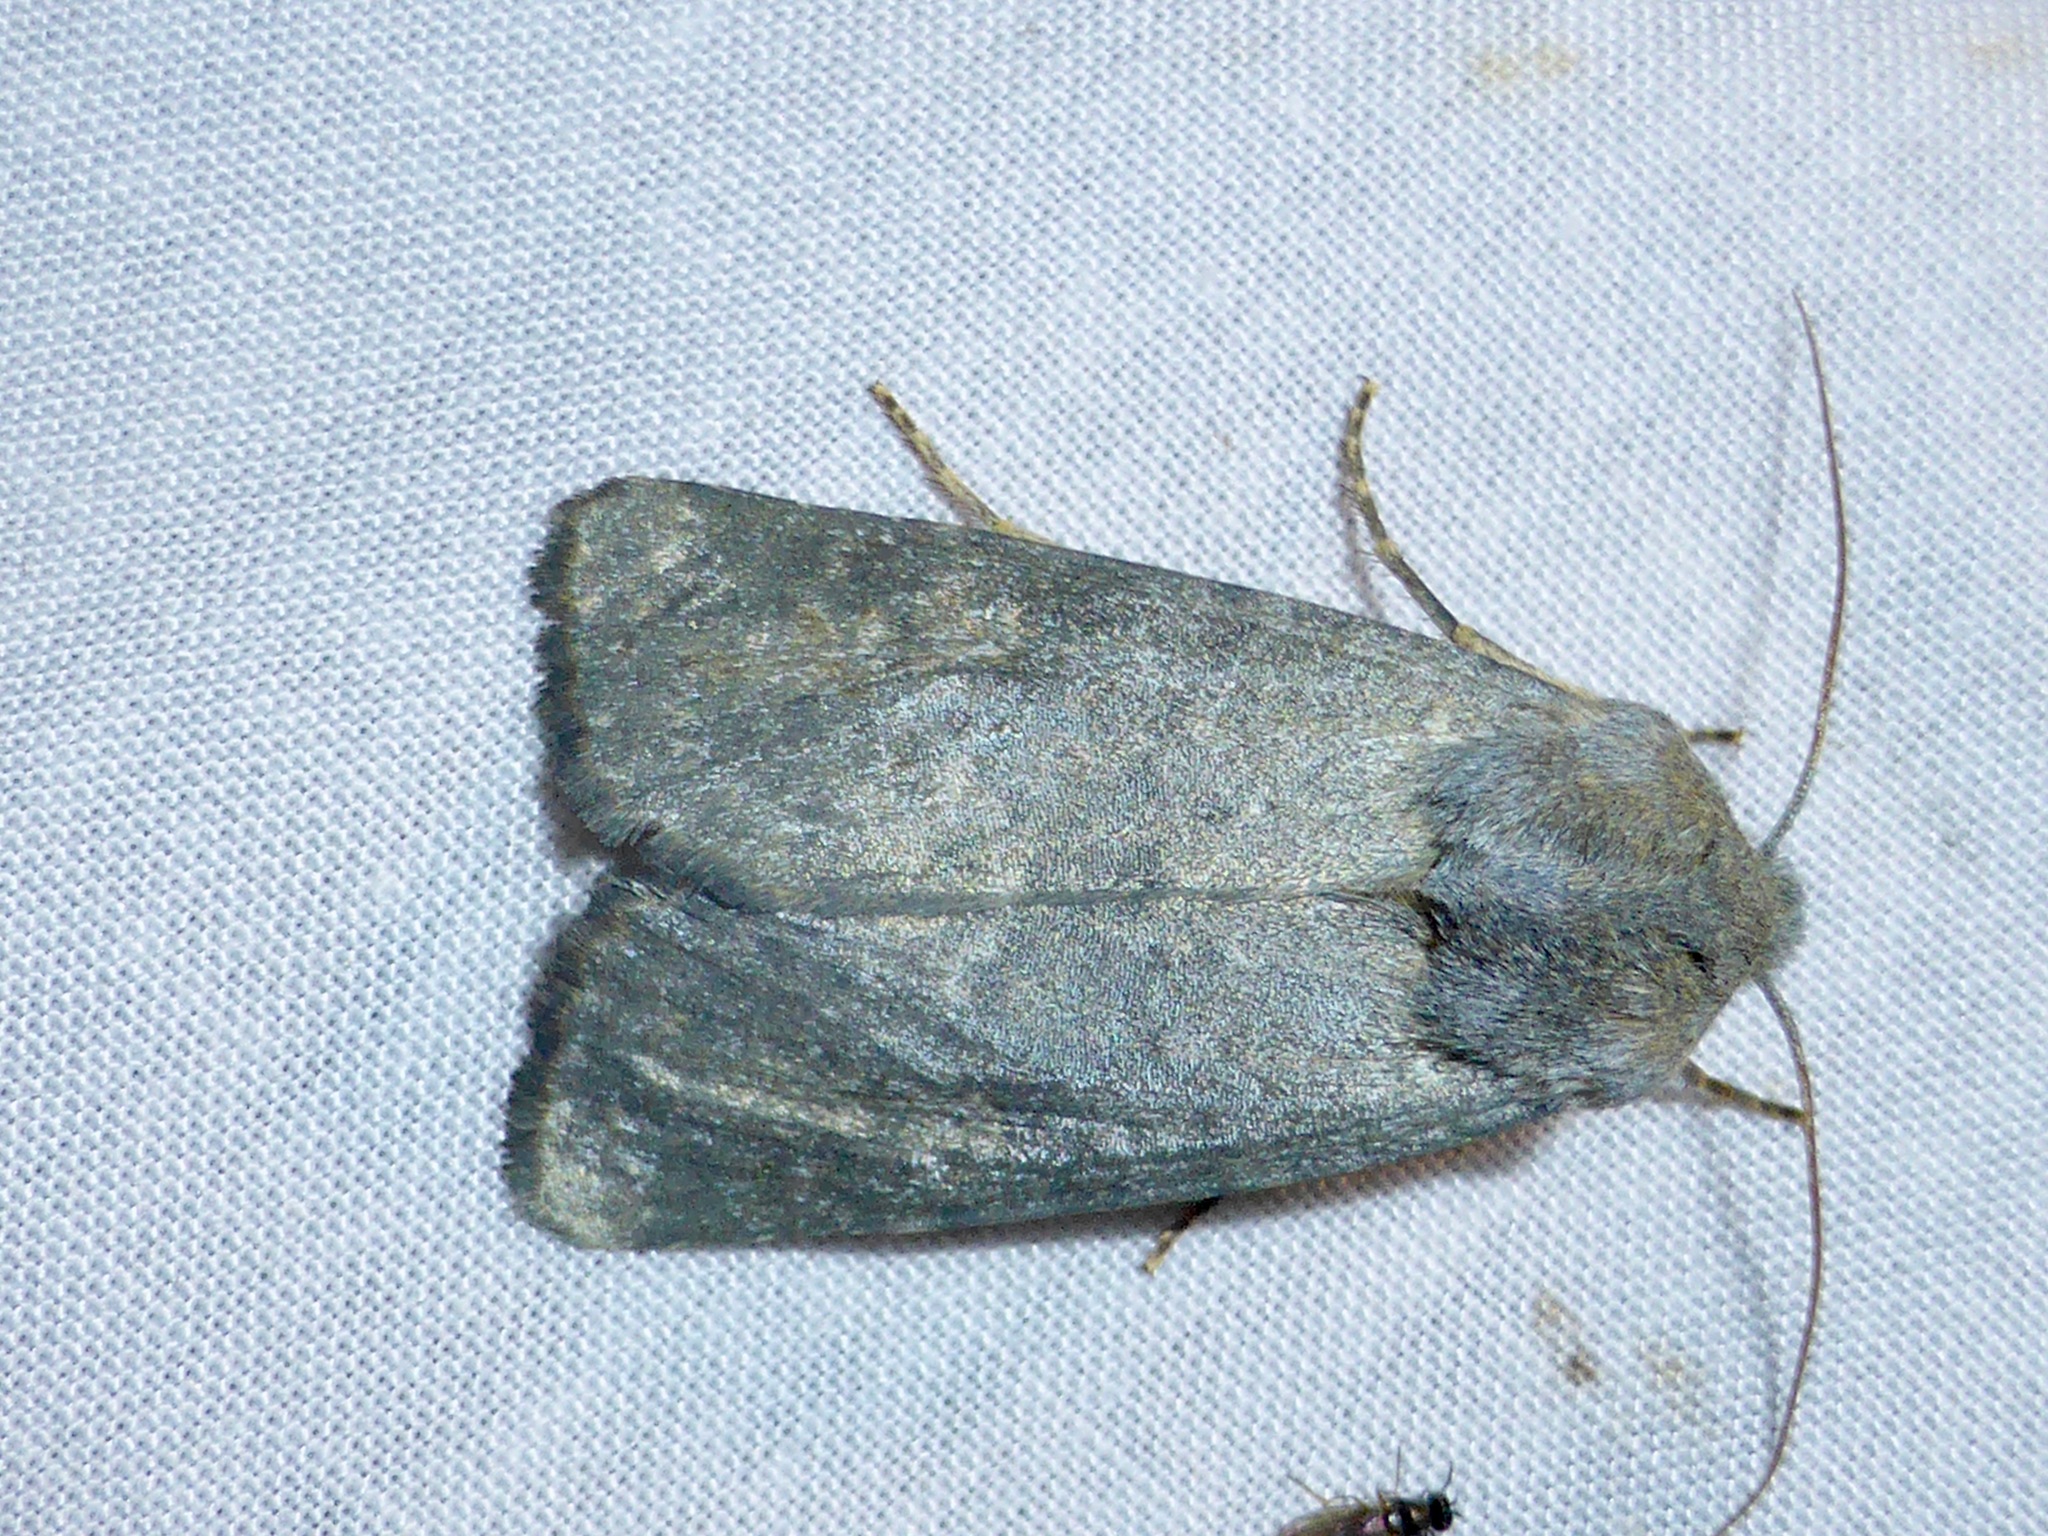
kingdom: Animalia
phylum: Arthropoda
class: Insecta
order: Lepidoptera
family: Noctuidae
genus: Physetica
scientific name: Physetica caerulea
